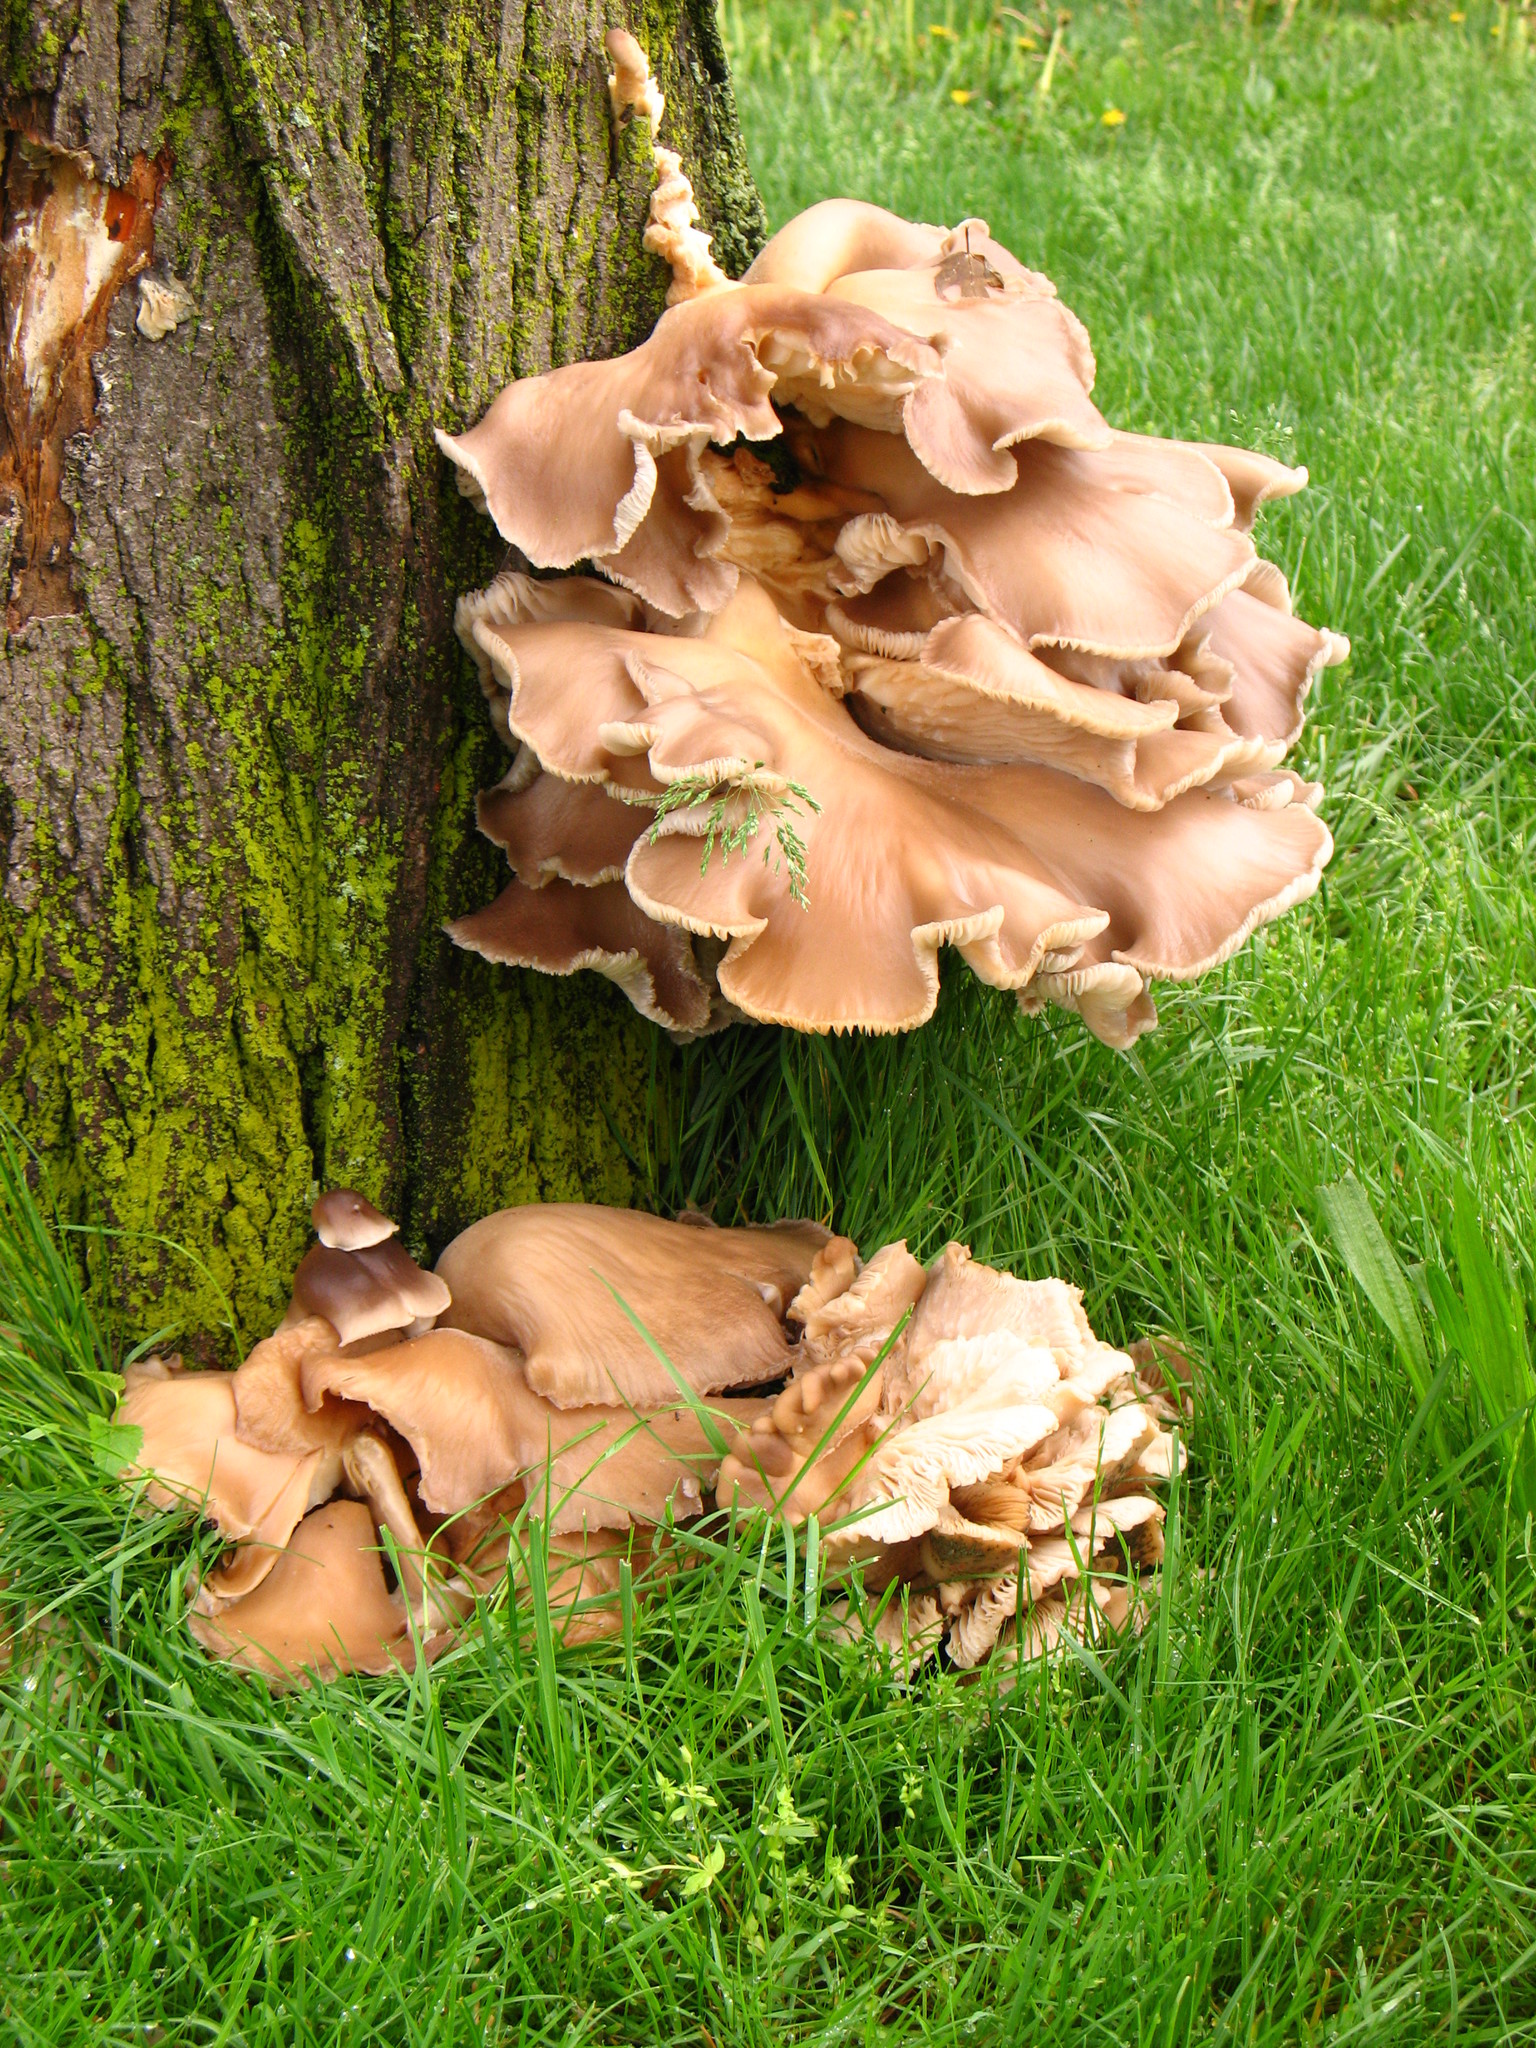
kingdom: Fungi
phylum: Basidiomycota
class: Agaricomycetes
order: Agaricales
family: Pleurotaceae
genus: Pleurotus
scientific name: Pleurotus ostreatus
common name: Oyster mushroom
